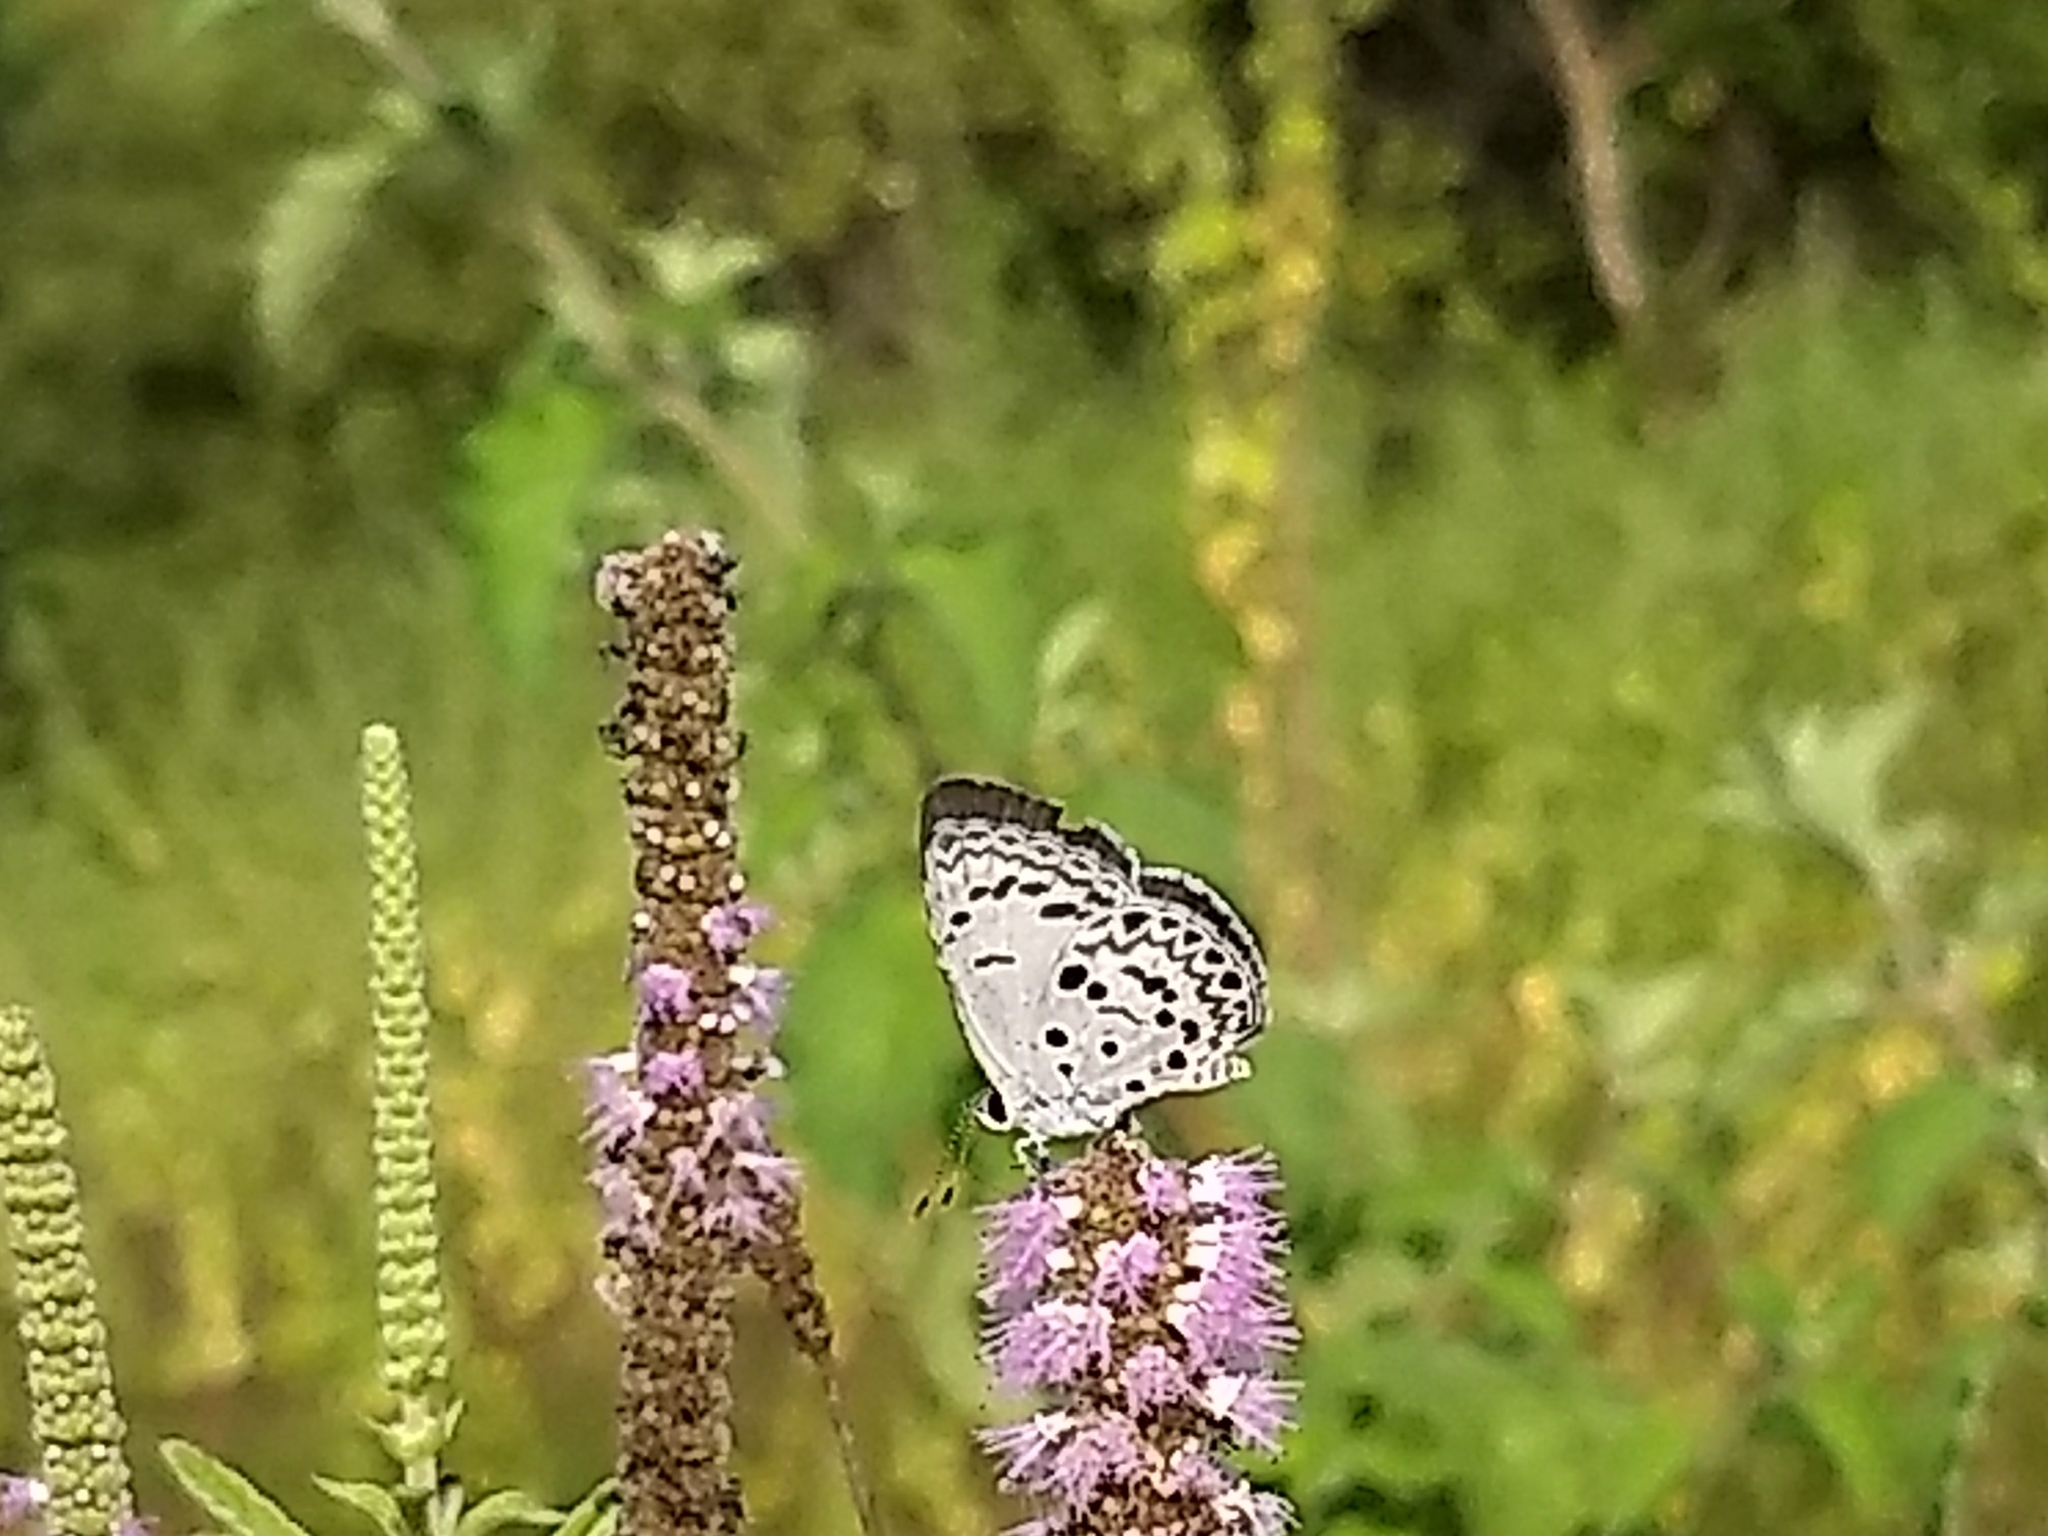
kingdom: Animalia
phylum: Arthropoda
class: Insecta
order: Lepidoptera
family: Lycaenidae
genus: Acytolepis
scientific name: Acytolepis puspa
